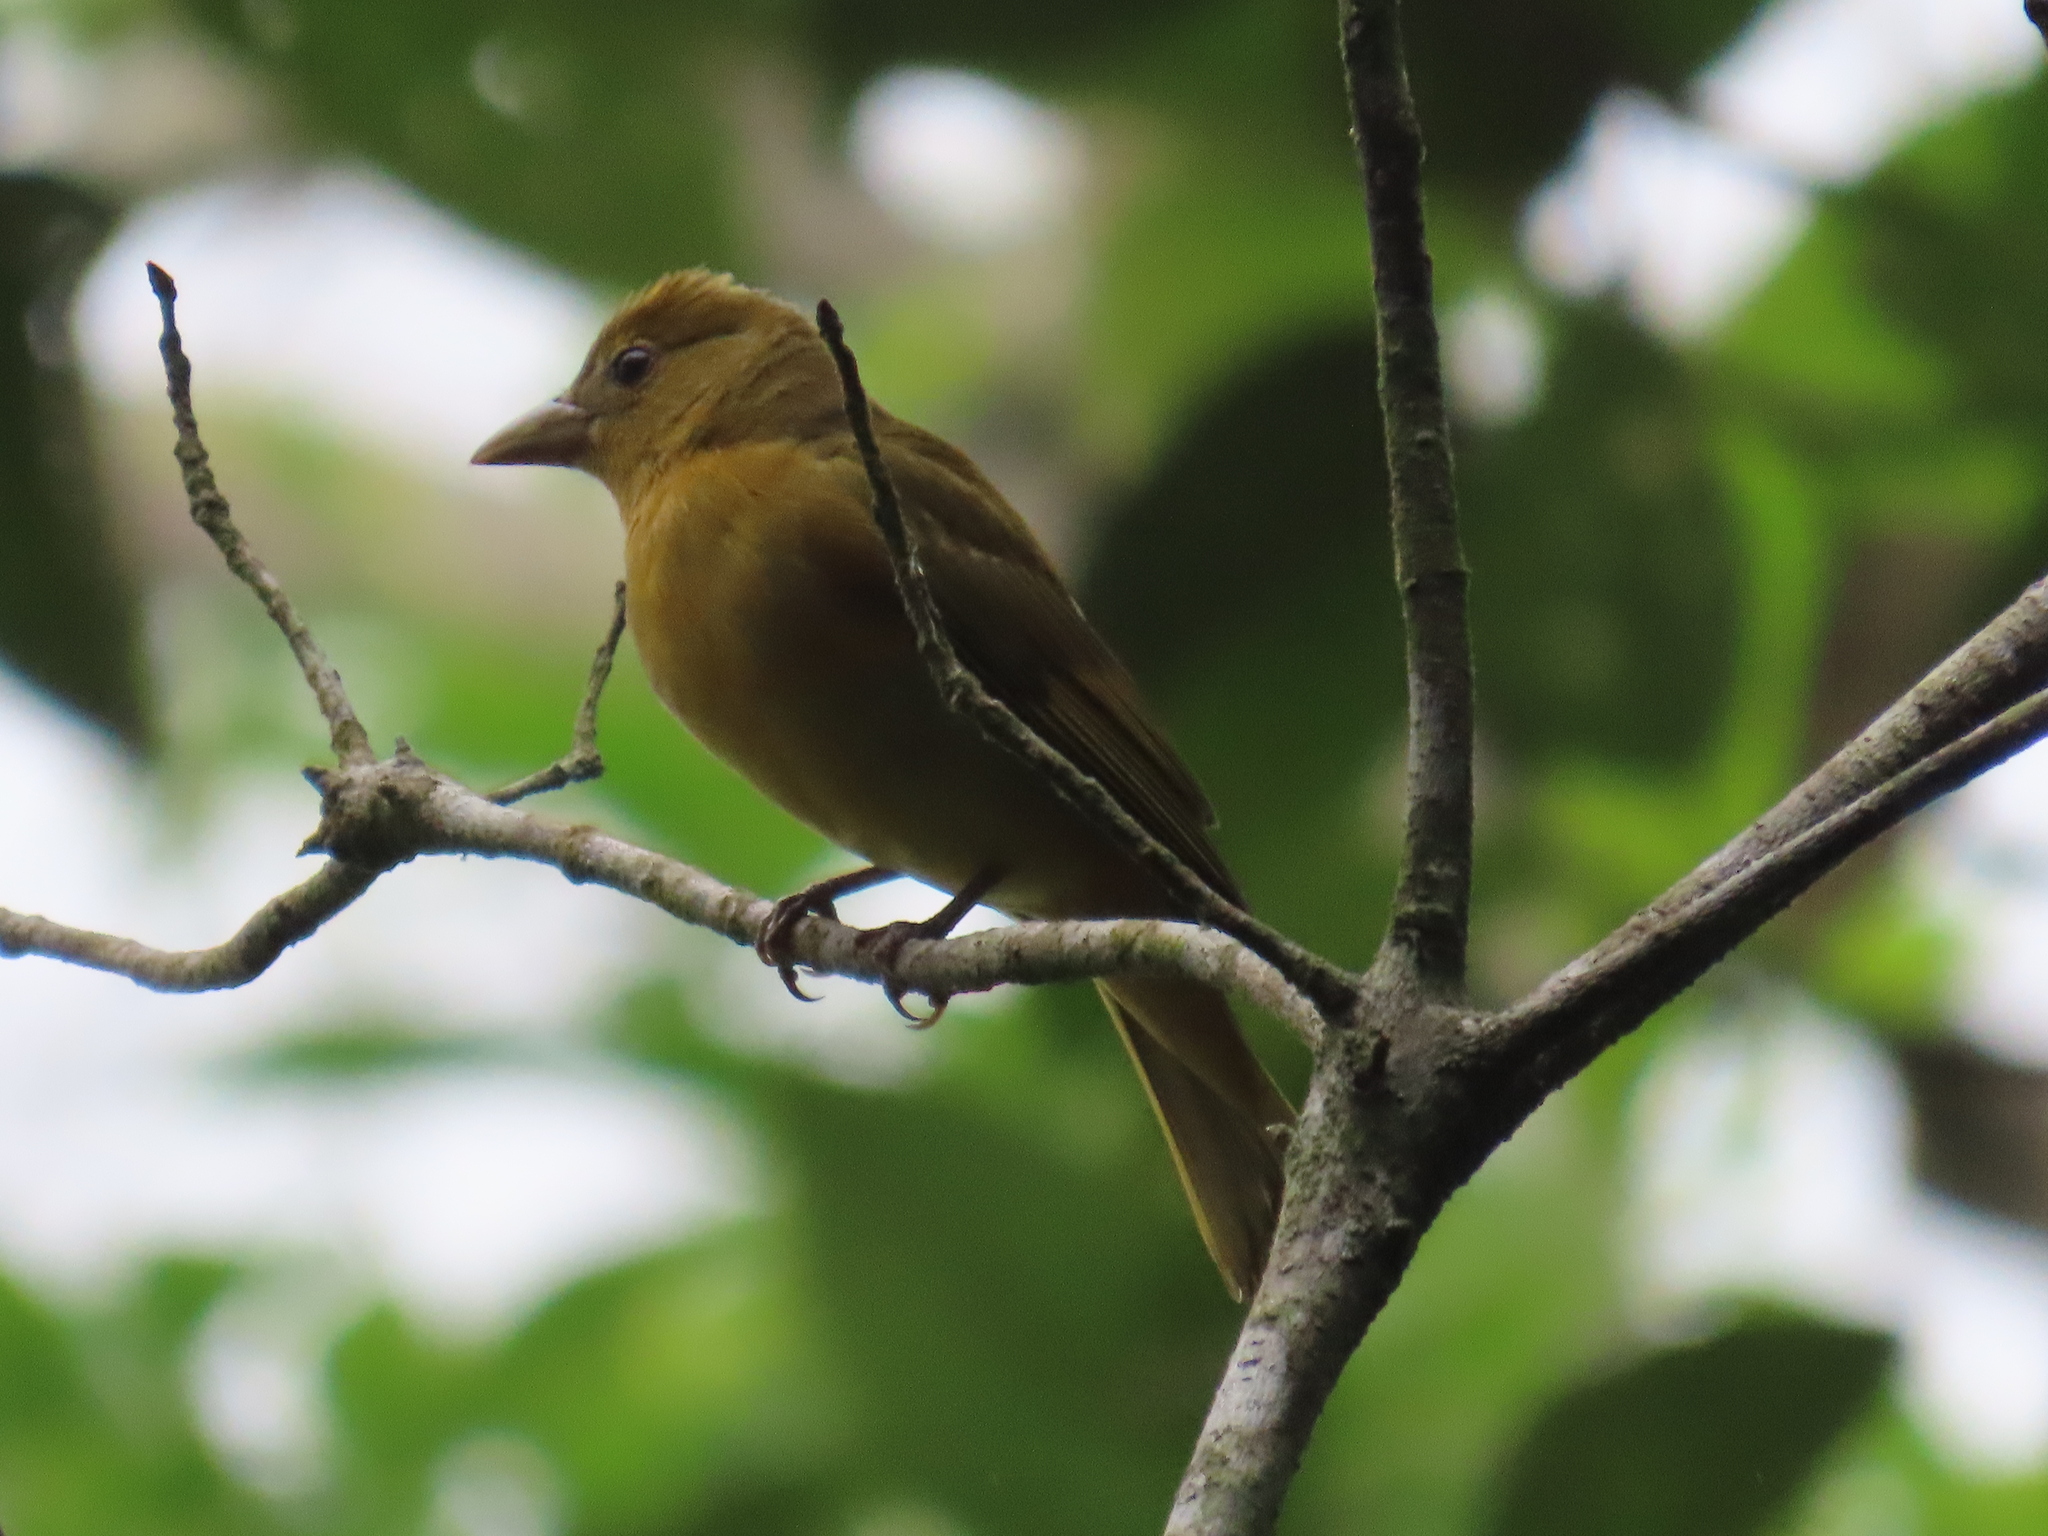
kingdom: Animalia
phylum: Chordata
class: Aves
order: Passeriformes
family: Cardinalidae
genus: Piranga
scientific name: Piranga rubra
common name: Summer tanager
